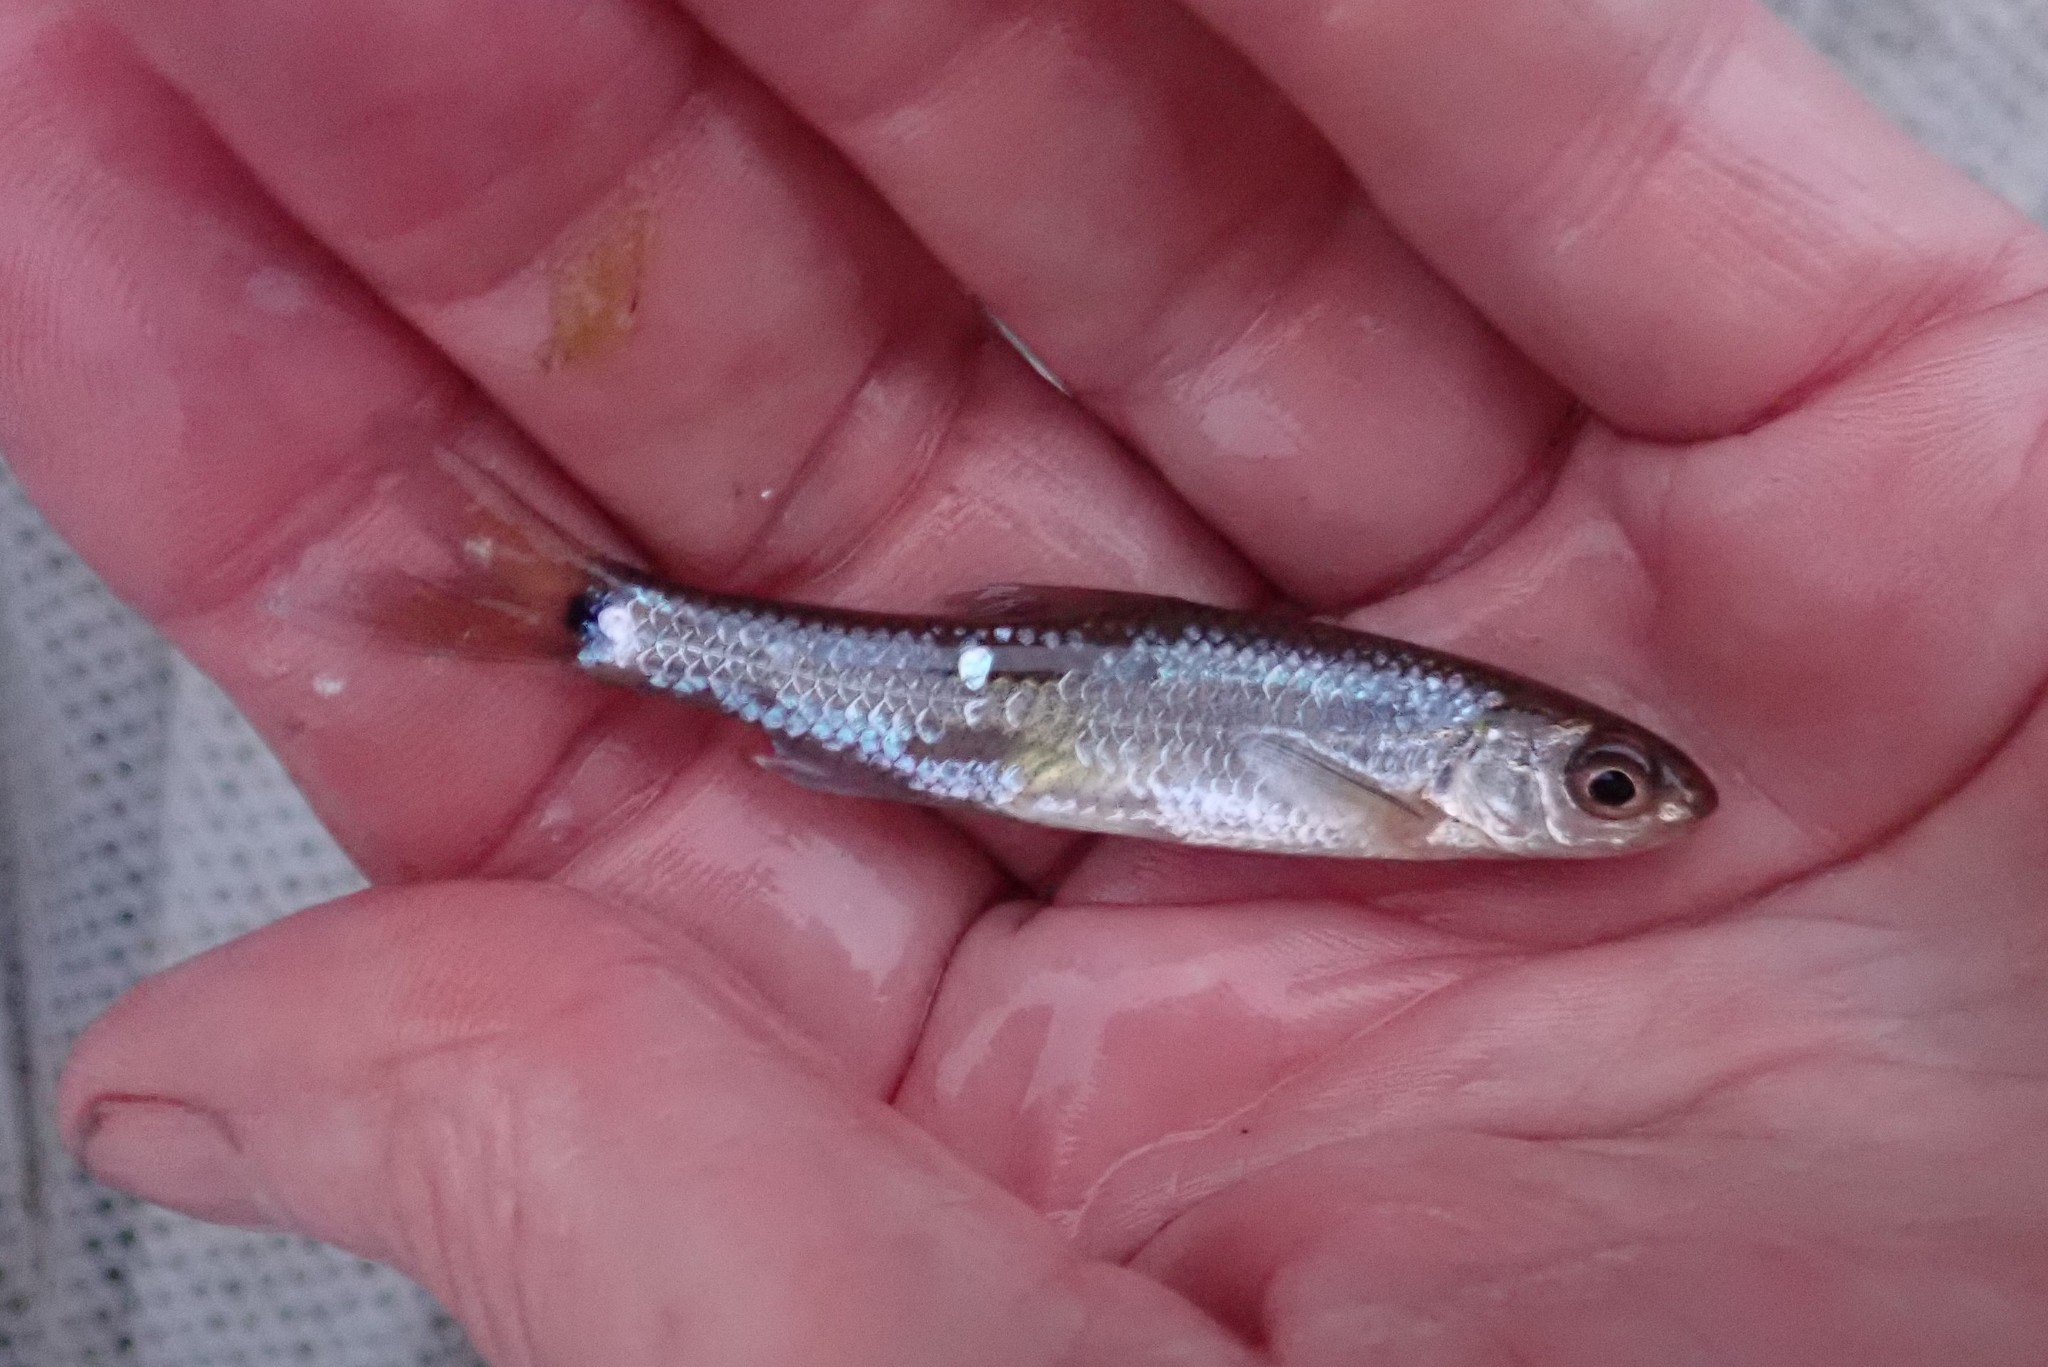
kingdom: Animalia
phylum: Chordata
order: Cypriniformes
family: Cyprinidae
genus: Notropis
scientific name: Notropis
